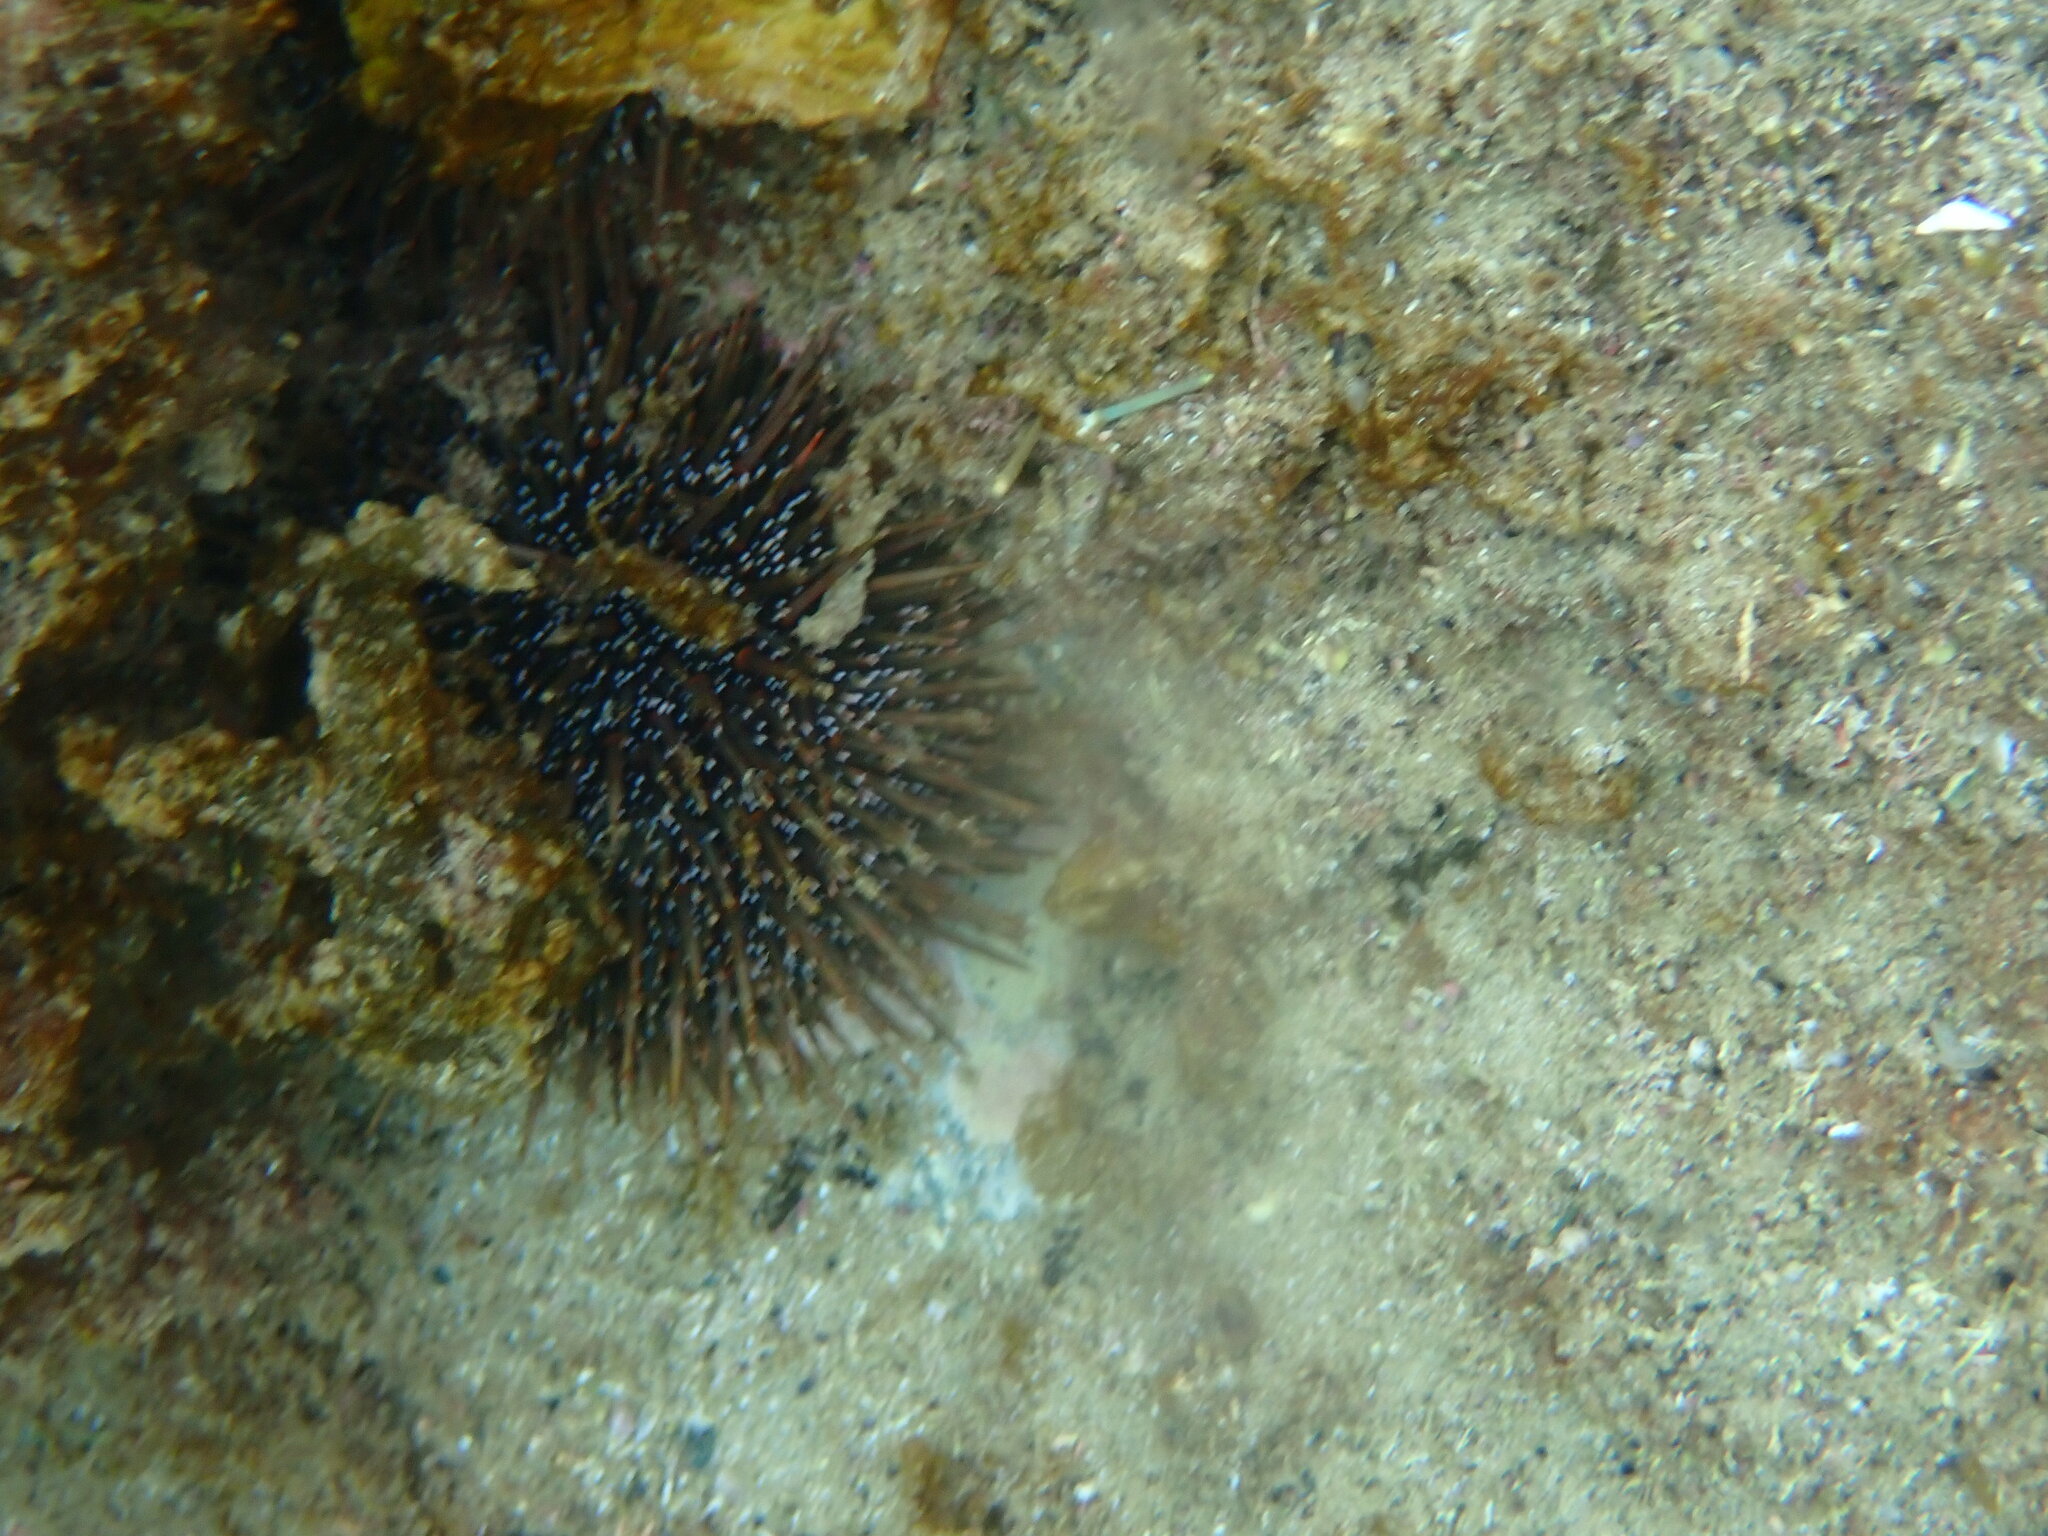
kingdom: Animalia
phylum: Echinodermata
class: Echinoidea
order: Camarodonta
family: Echinometridae
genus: Evechinus
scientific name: Evechinus chloroticus
